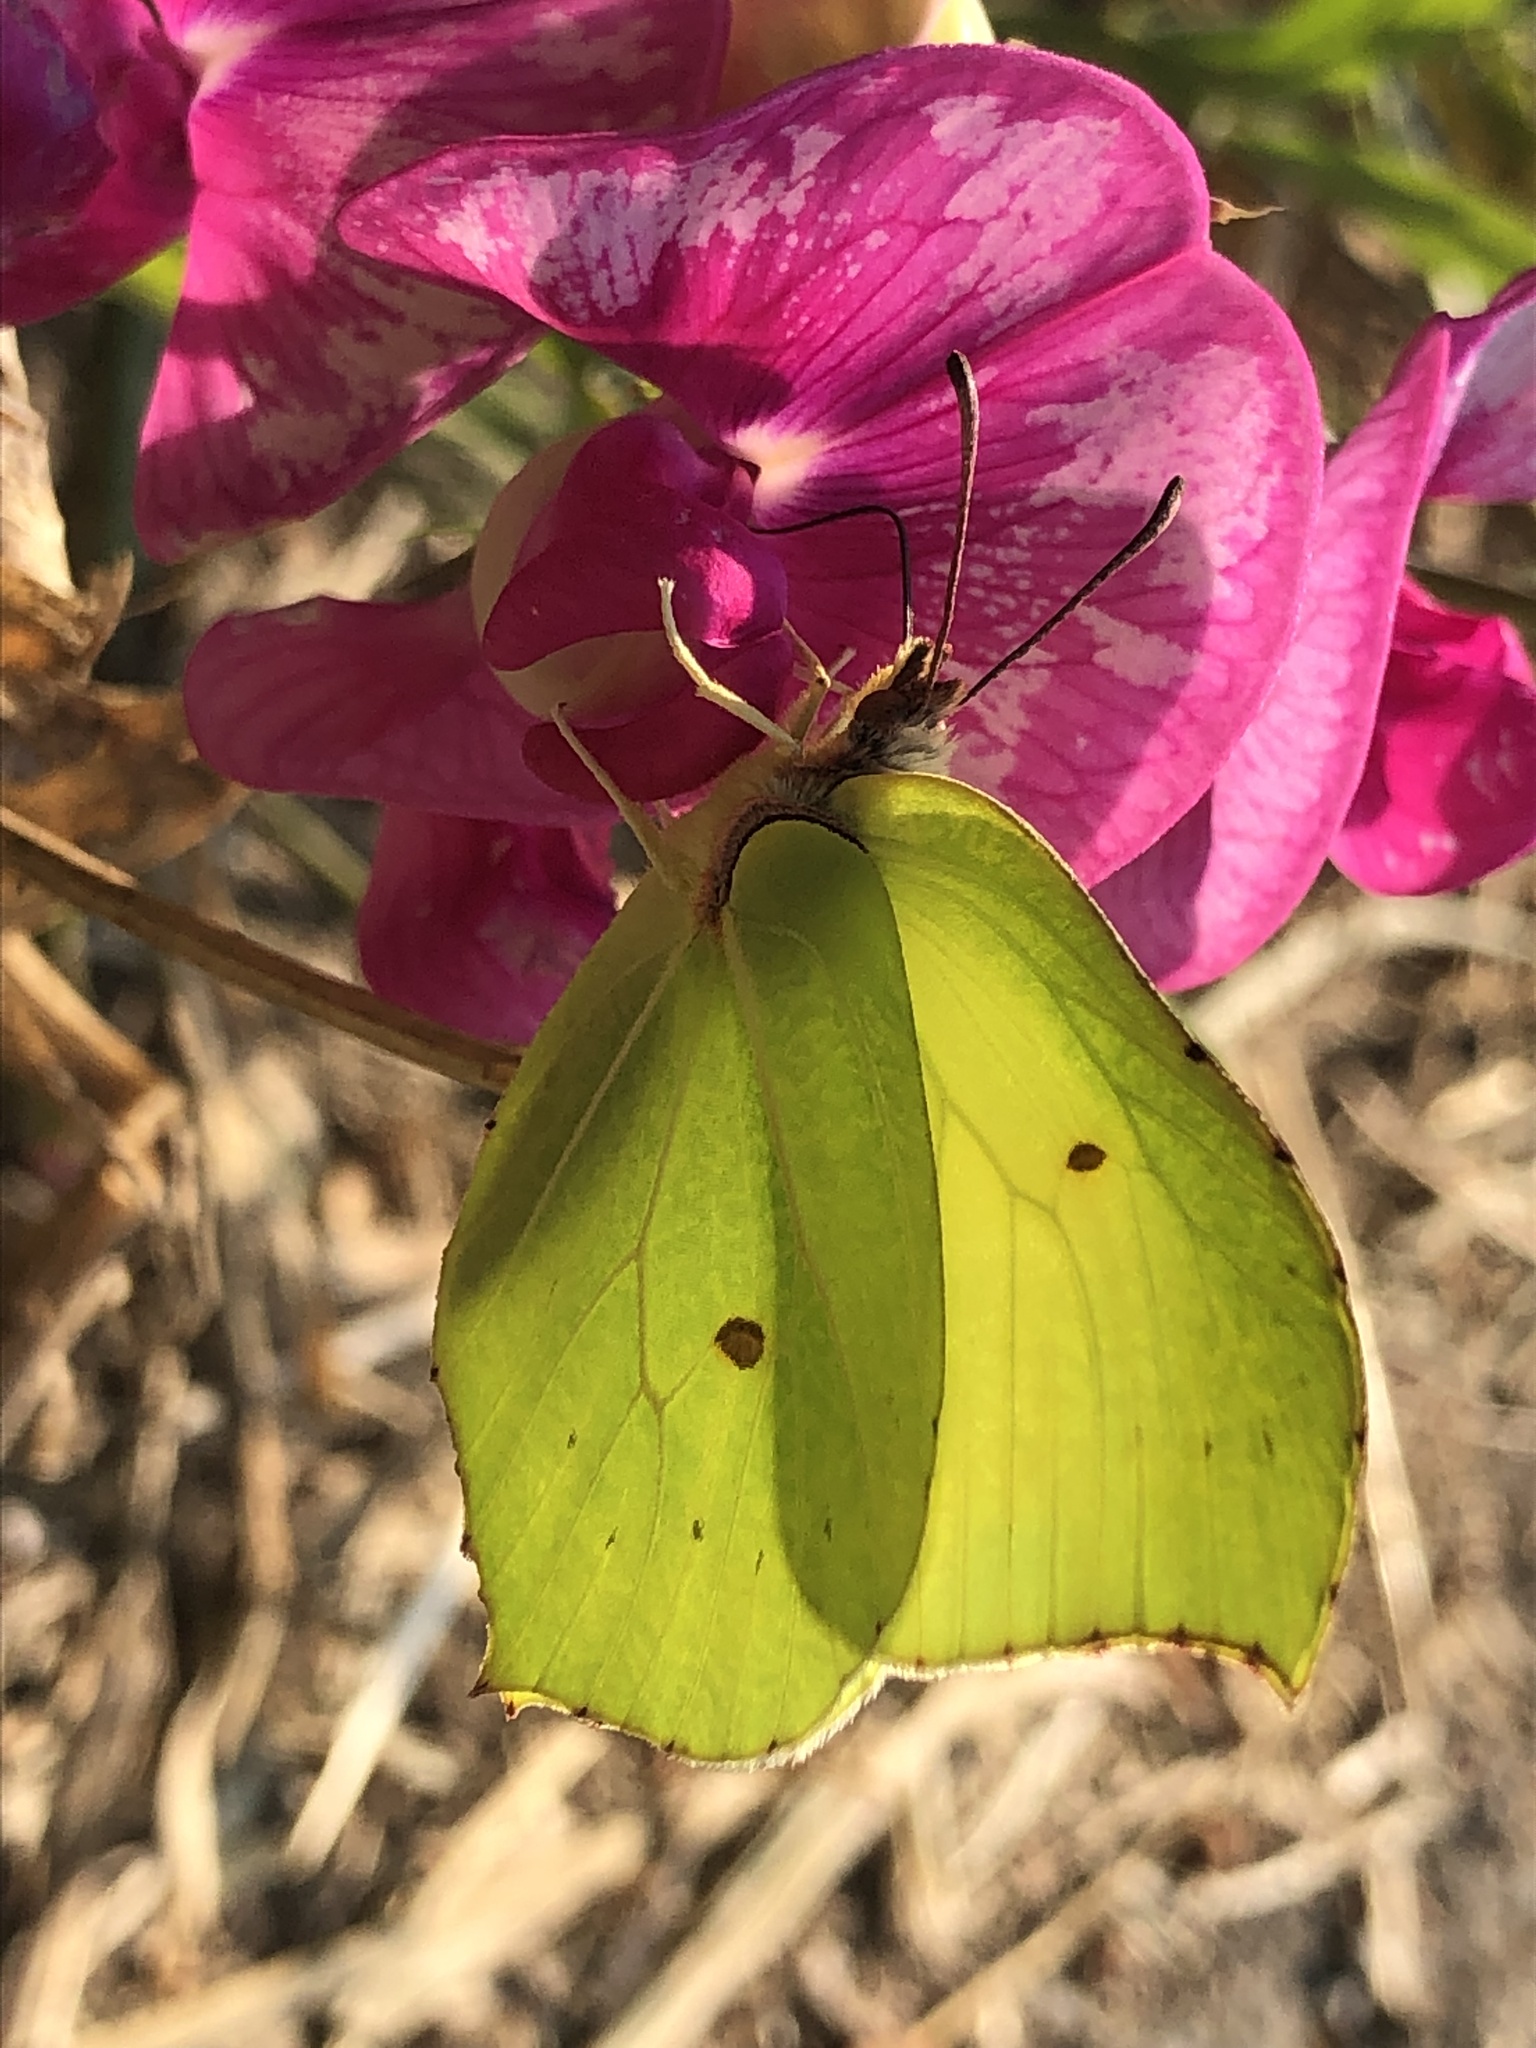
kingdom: Animalia
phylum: Arthropoda
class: Insecta
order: Lepidoptera
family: Pieridae
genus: Gonepteryx
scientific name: Gonepteryx rhamni
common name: Brimstone
